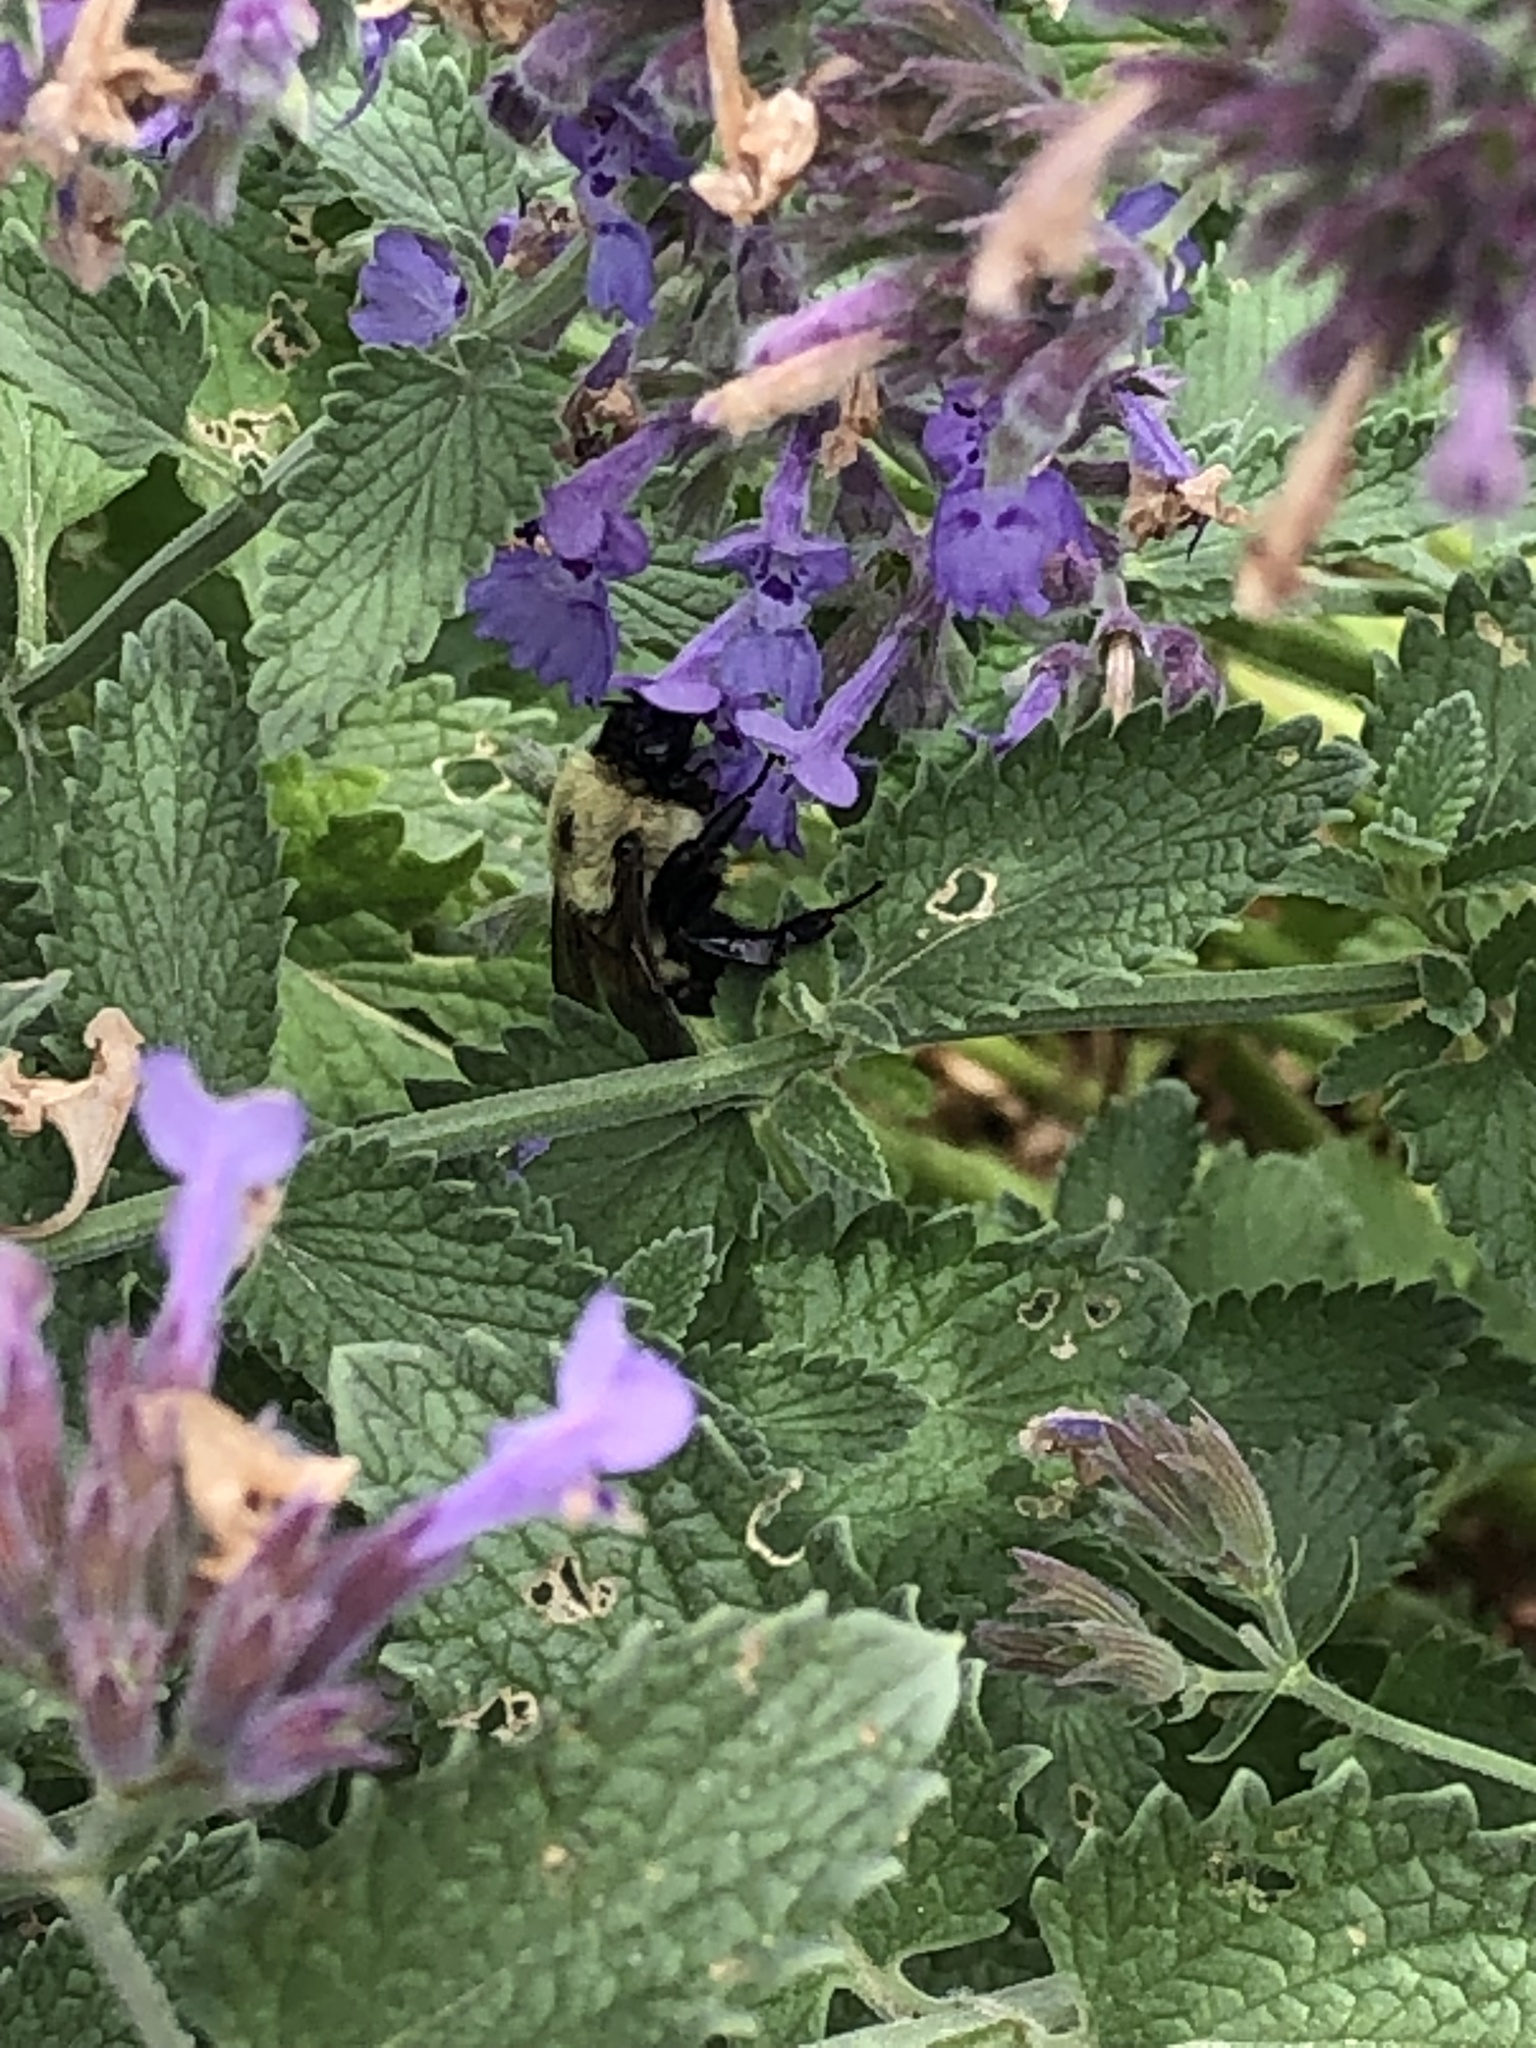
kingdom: Animalia
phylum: Arthropoda
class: Insecta
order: Hymenoptera
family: Apidae
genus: Bombus
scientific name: Bombus griseocollis
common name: Brown-belted bumble bee
